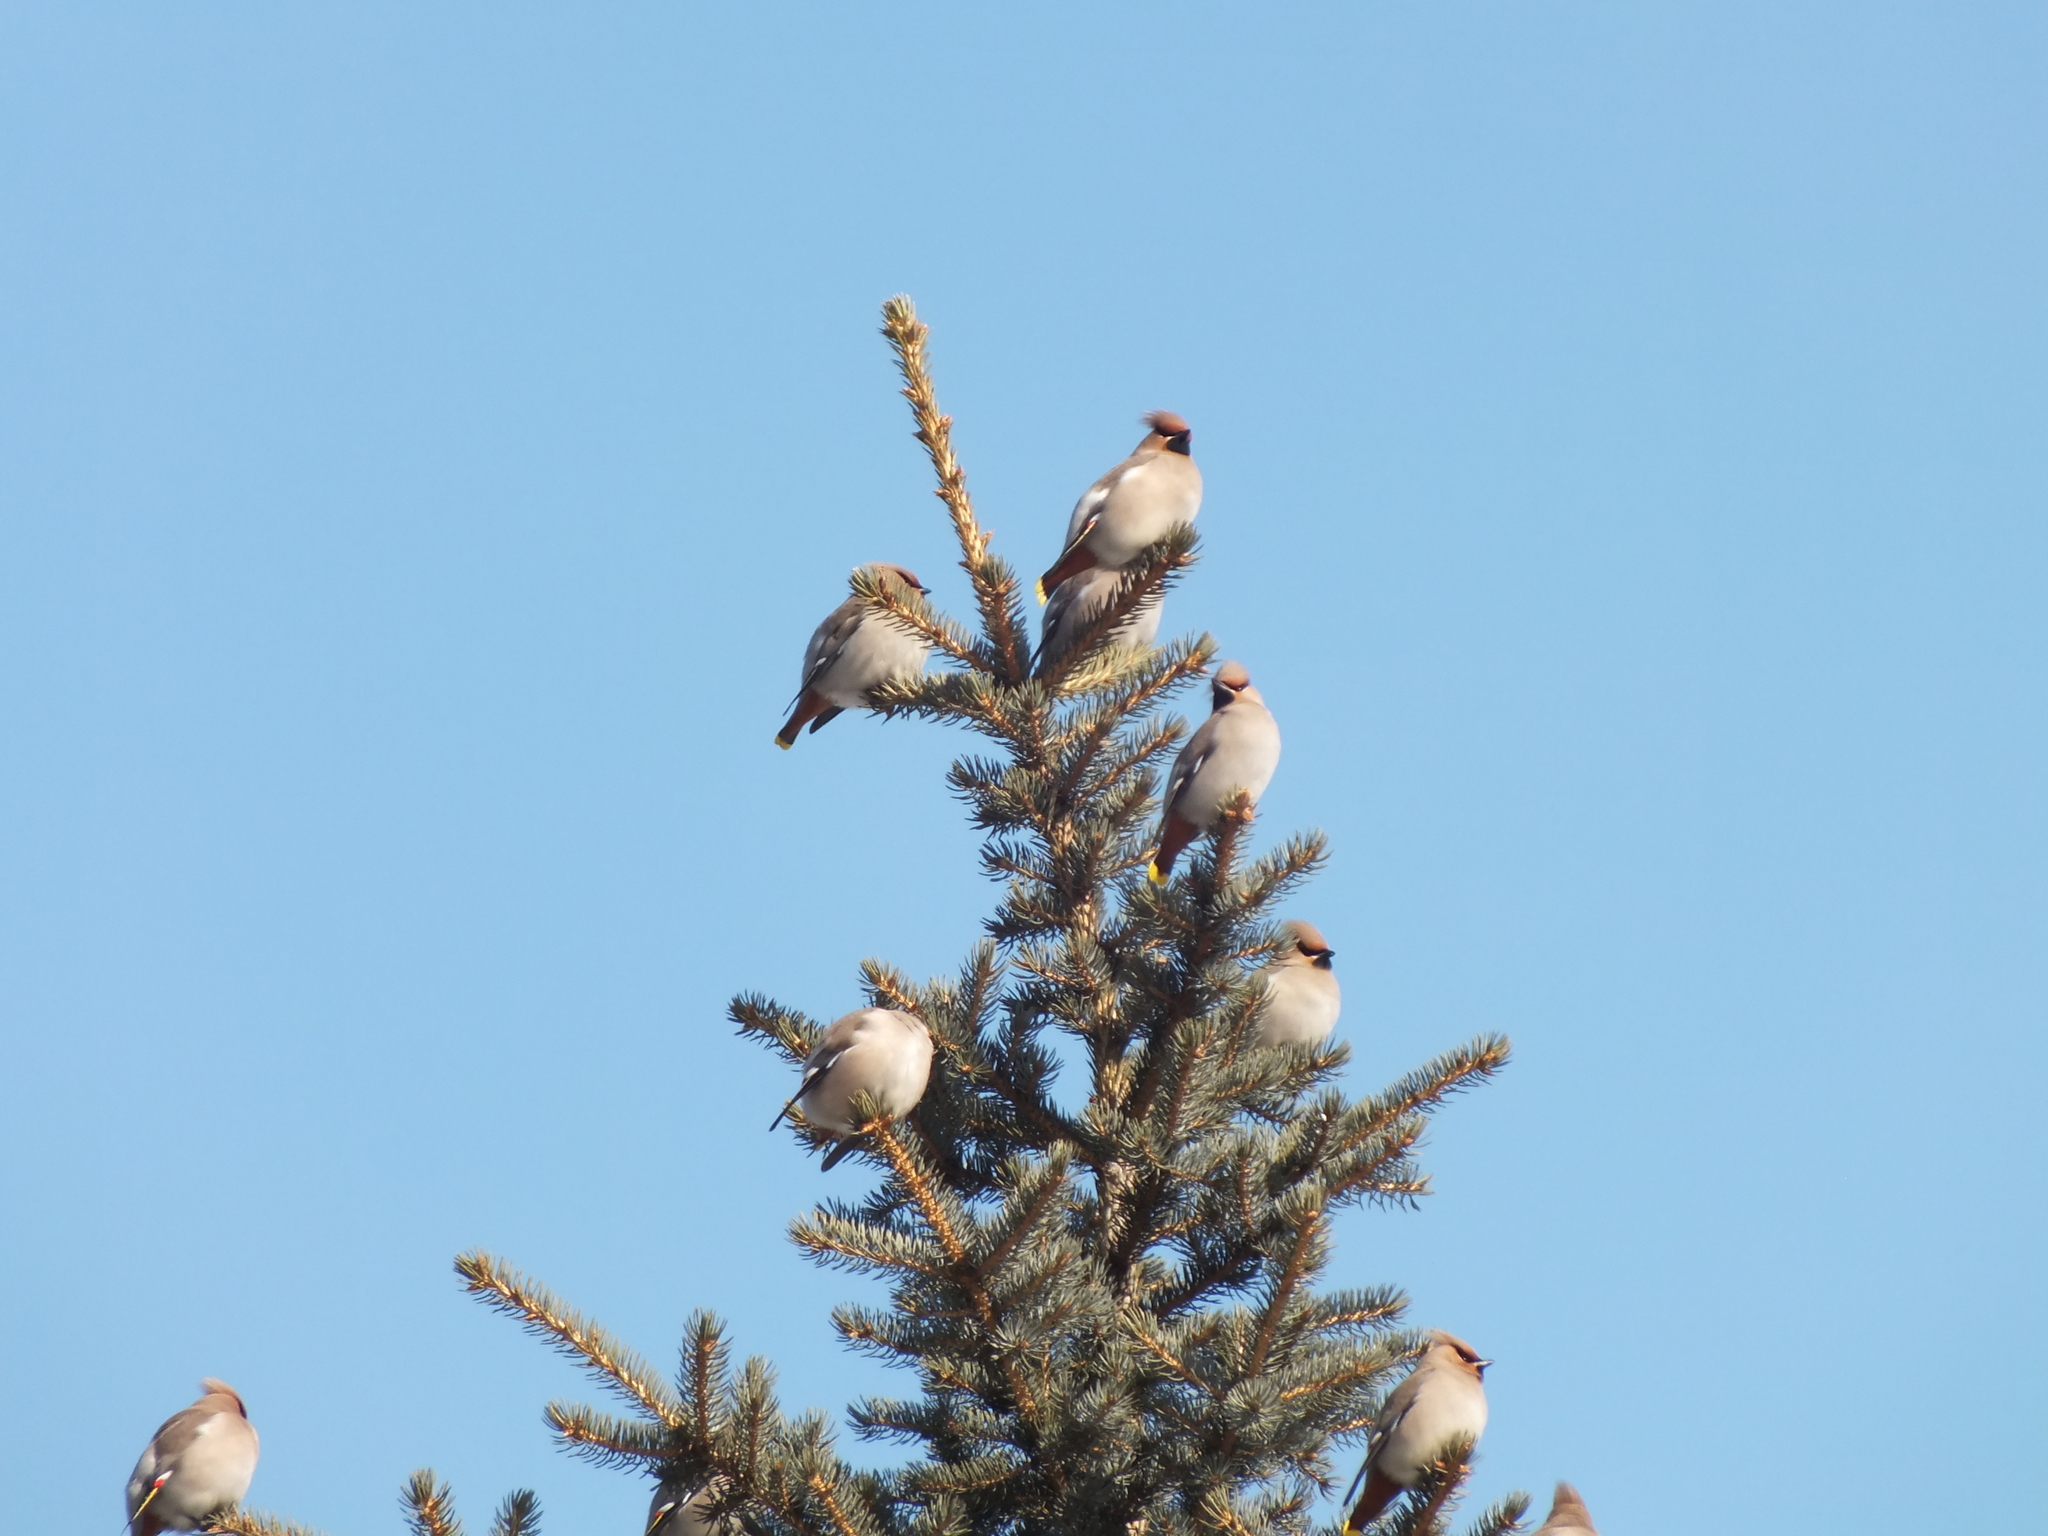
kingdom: Animalia
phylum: Chordata
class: Aves
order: Passeriformes
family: Bombycillidae
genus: Bombycilla
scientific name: Bombycilla garrulus
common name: Bohemian waxwing
